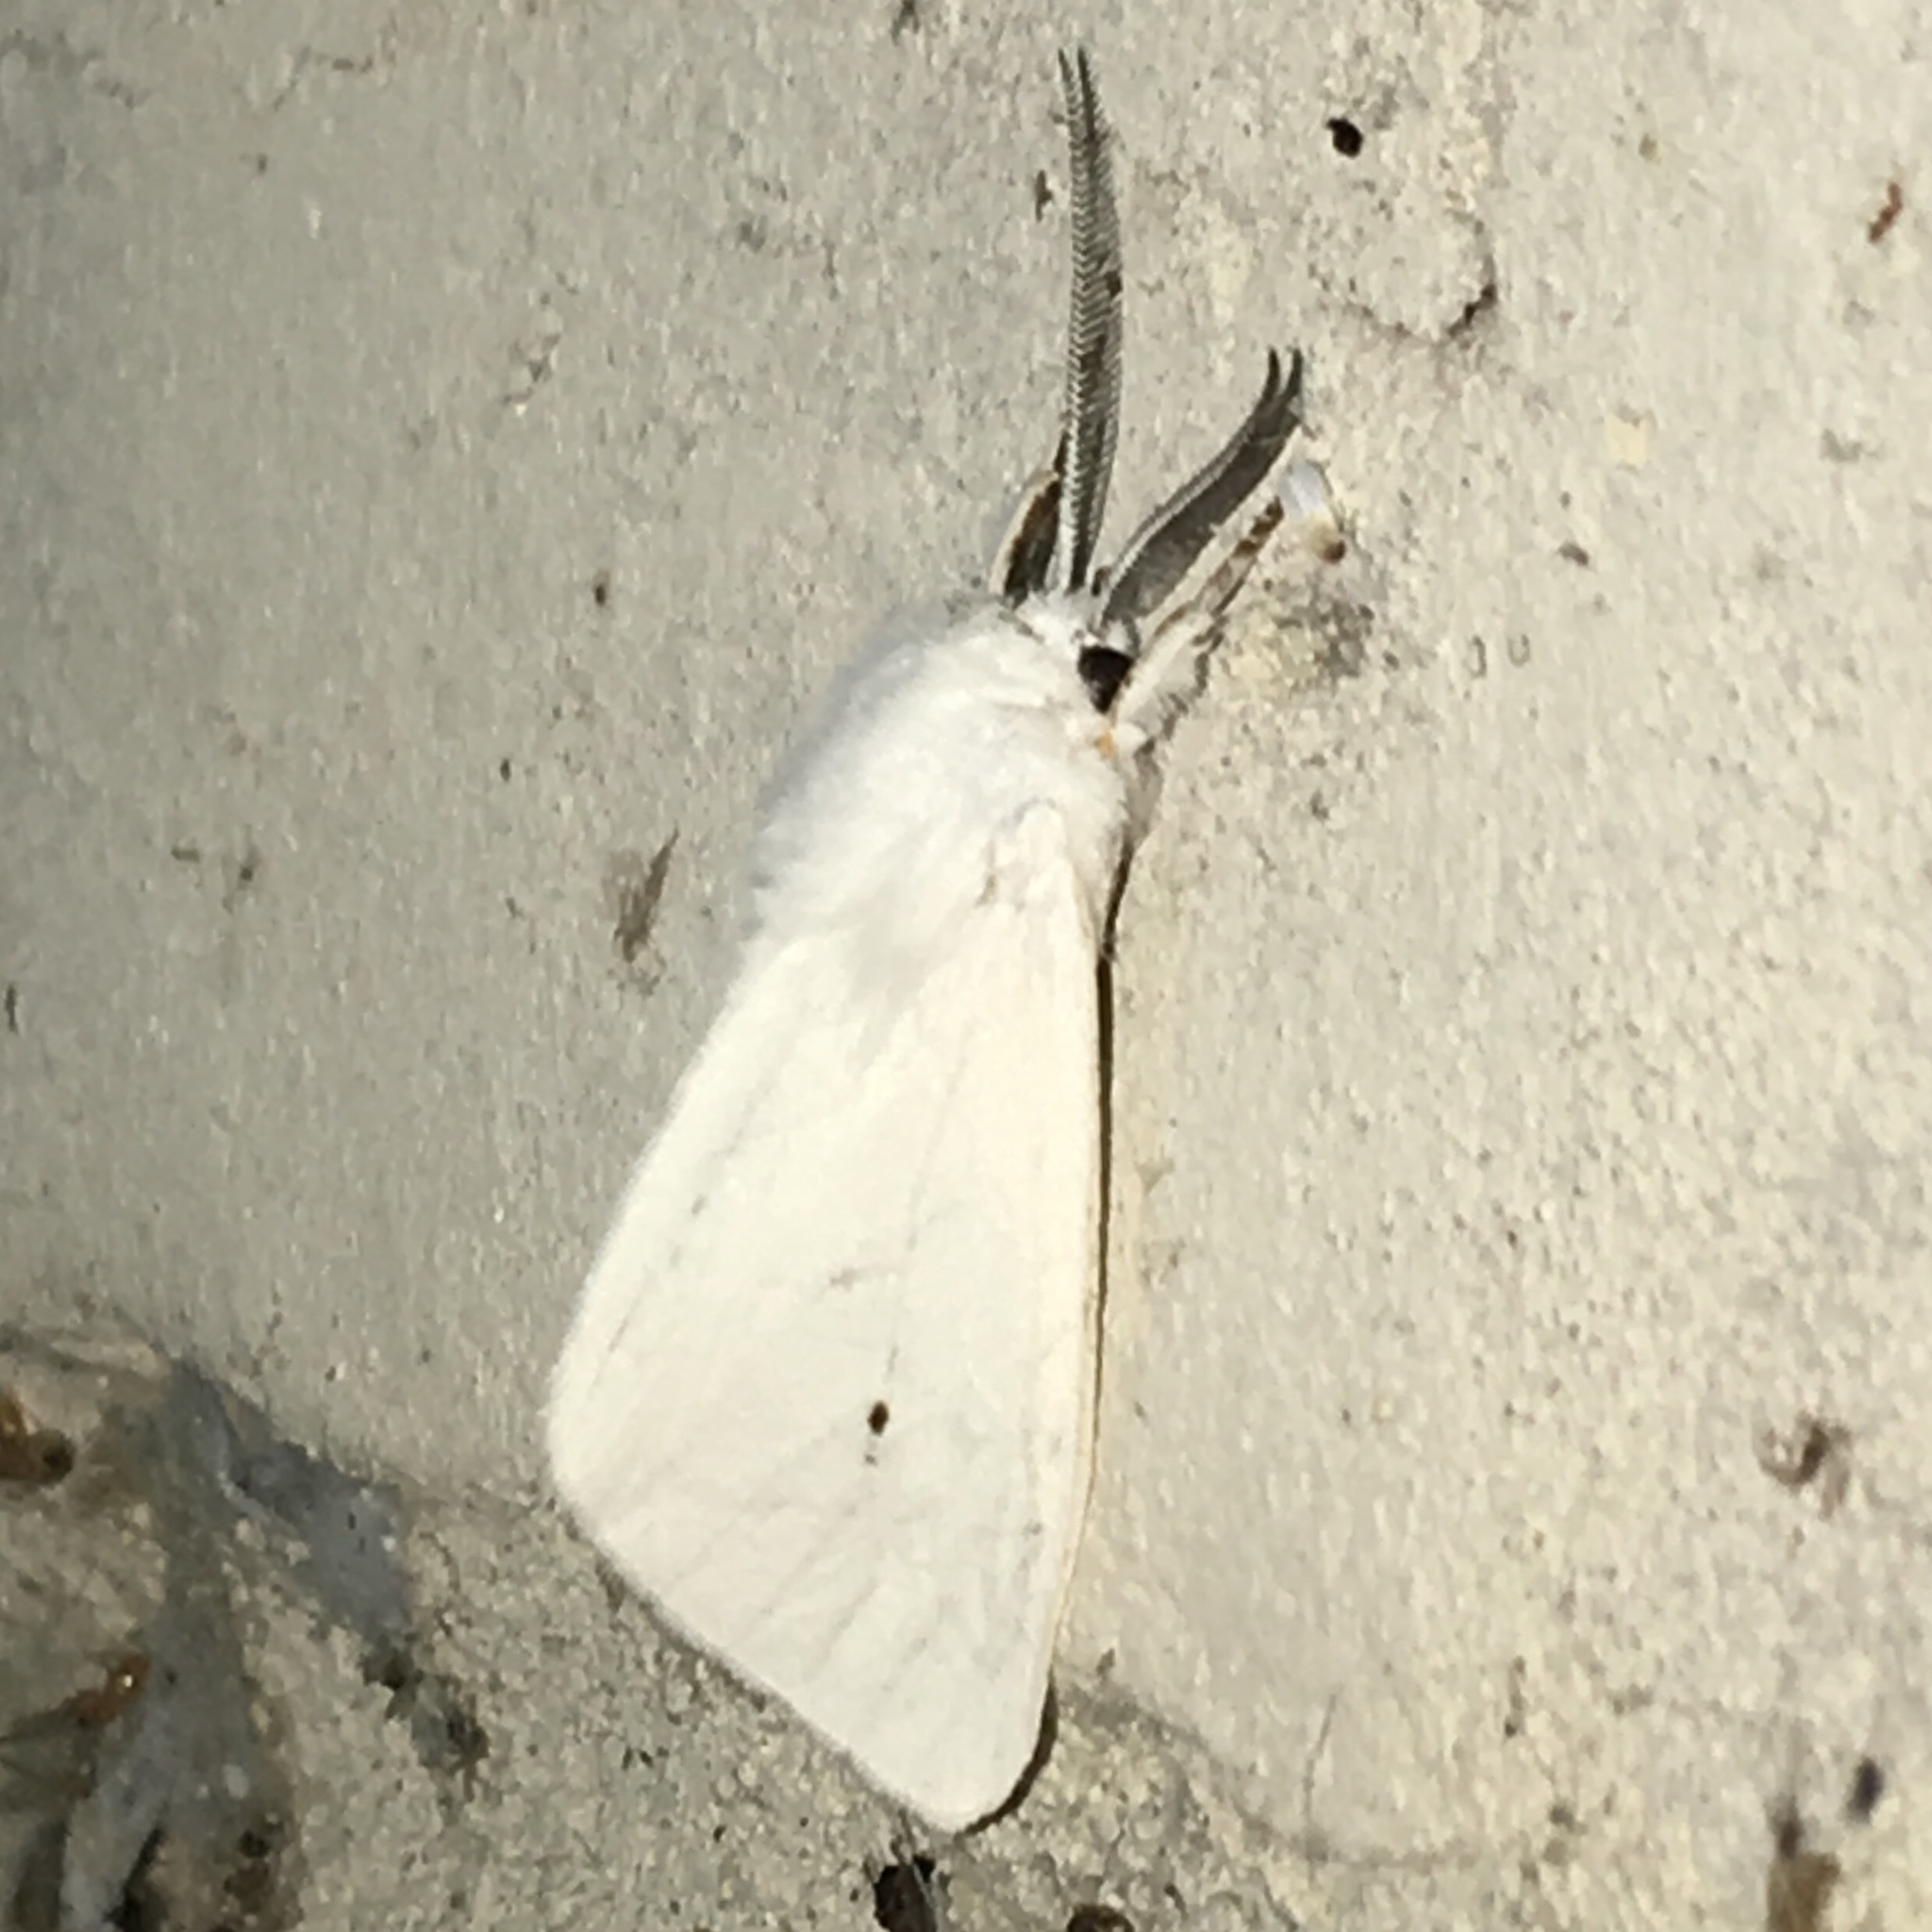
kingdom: Animalia
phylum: Arthropoda
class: Insecta
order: Lepidoptera
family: Erebidae
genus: Spilosoma
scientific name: Spilosoma virginica
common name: Virginia tiger moth
